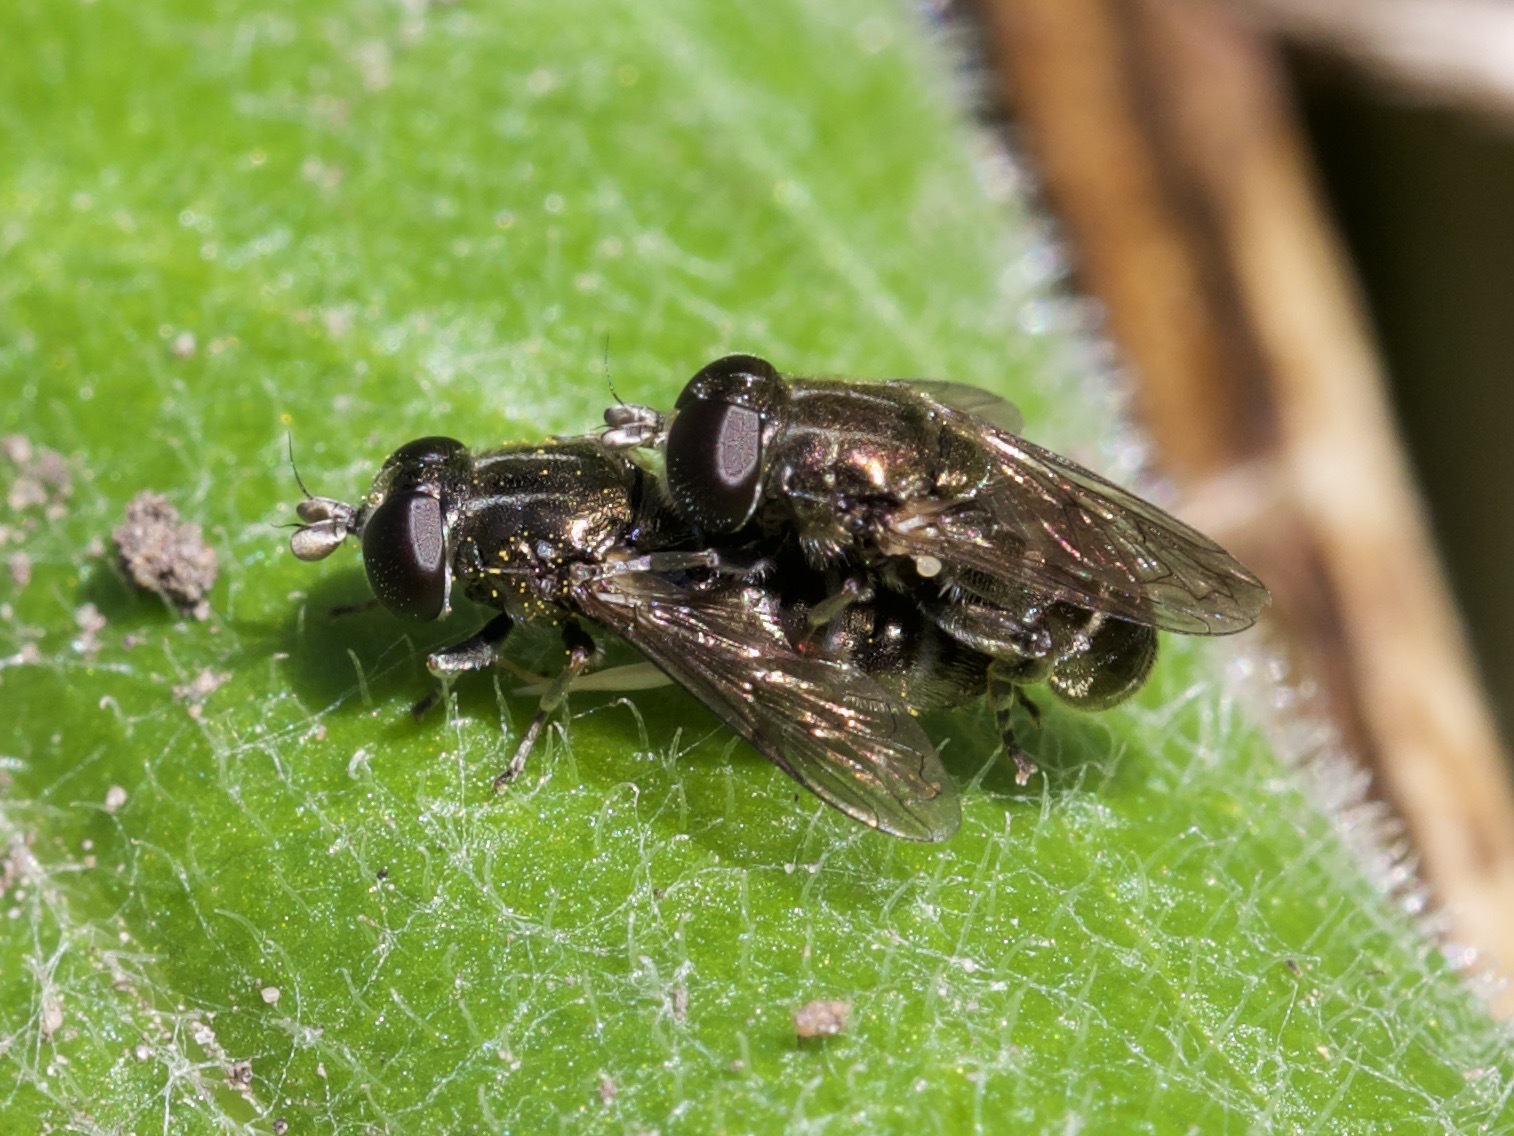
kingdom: Animalia
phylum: Arthropoda
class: Insecta
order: Diptera
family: Syrphidae
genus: Eumerus
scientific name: Eumerus
